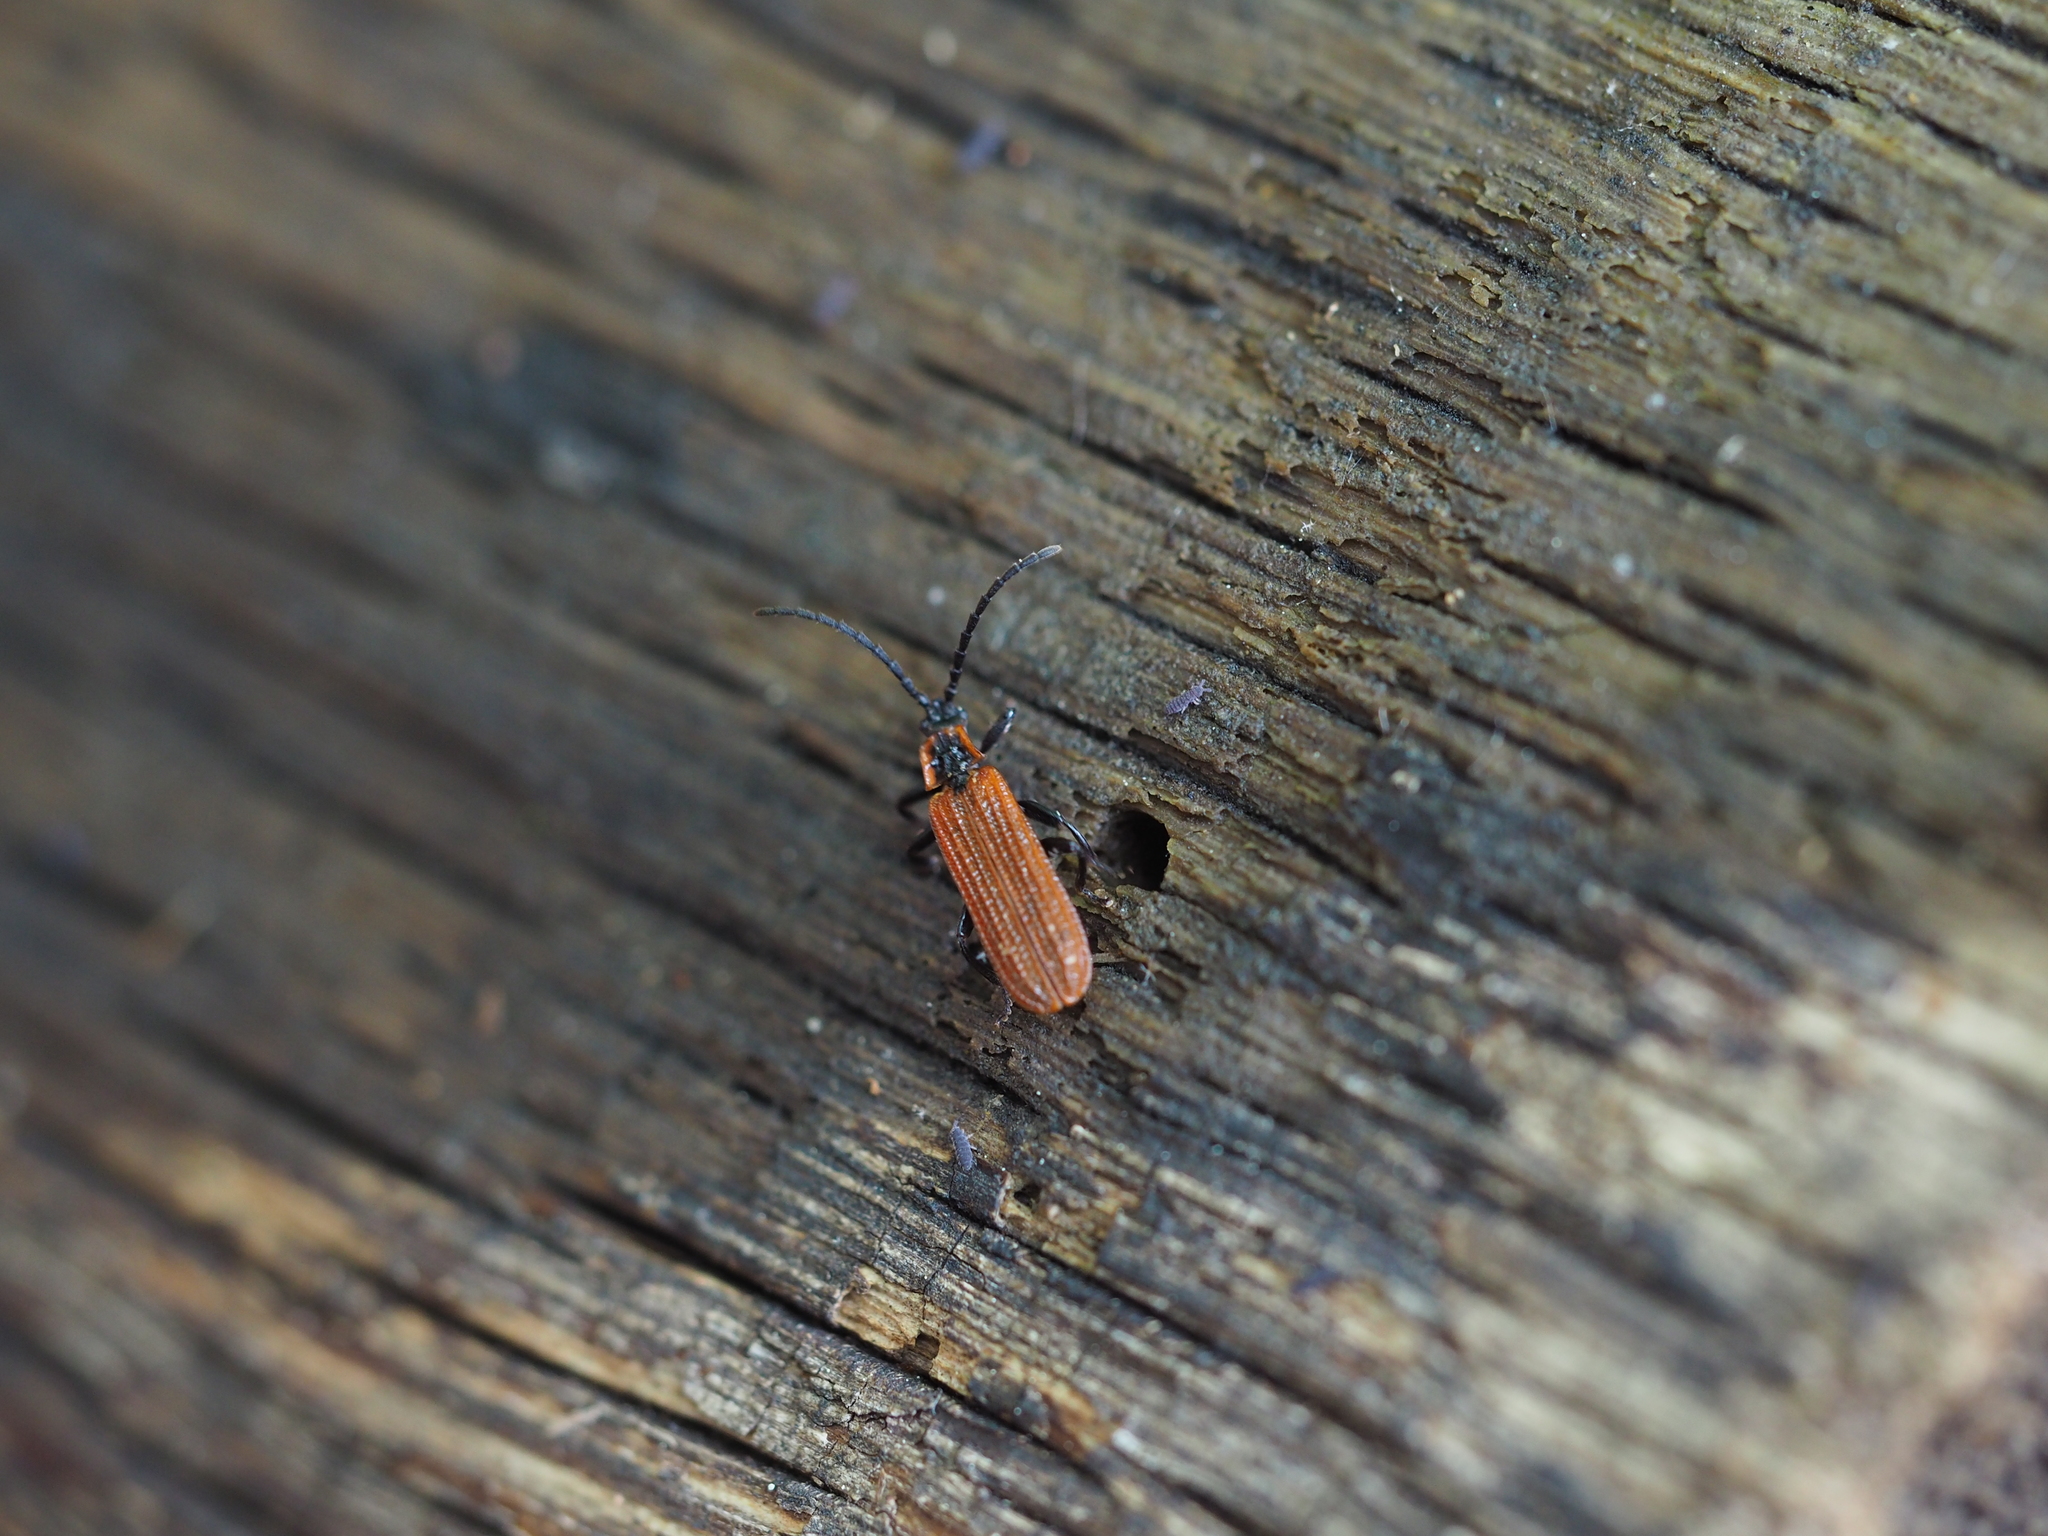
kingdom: Animalia
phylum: Arthropoda
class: Insecta
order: Coleoptera
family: Lycidae
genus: Erotides
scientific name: Erotides cosnardi
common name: Cosnard's net-winged beetle
